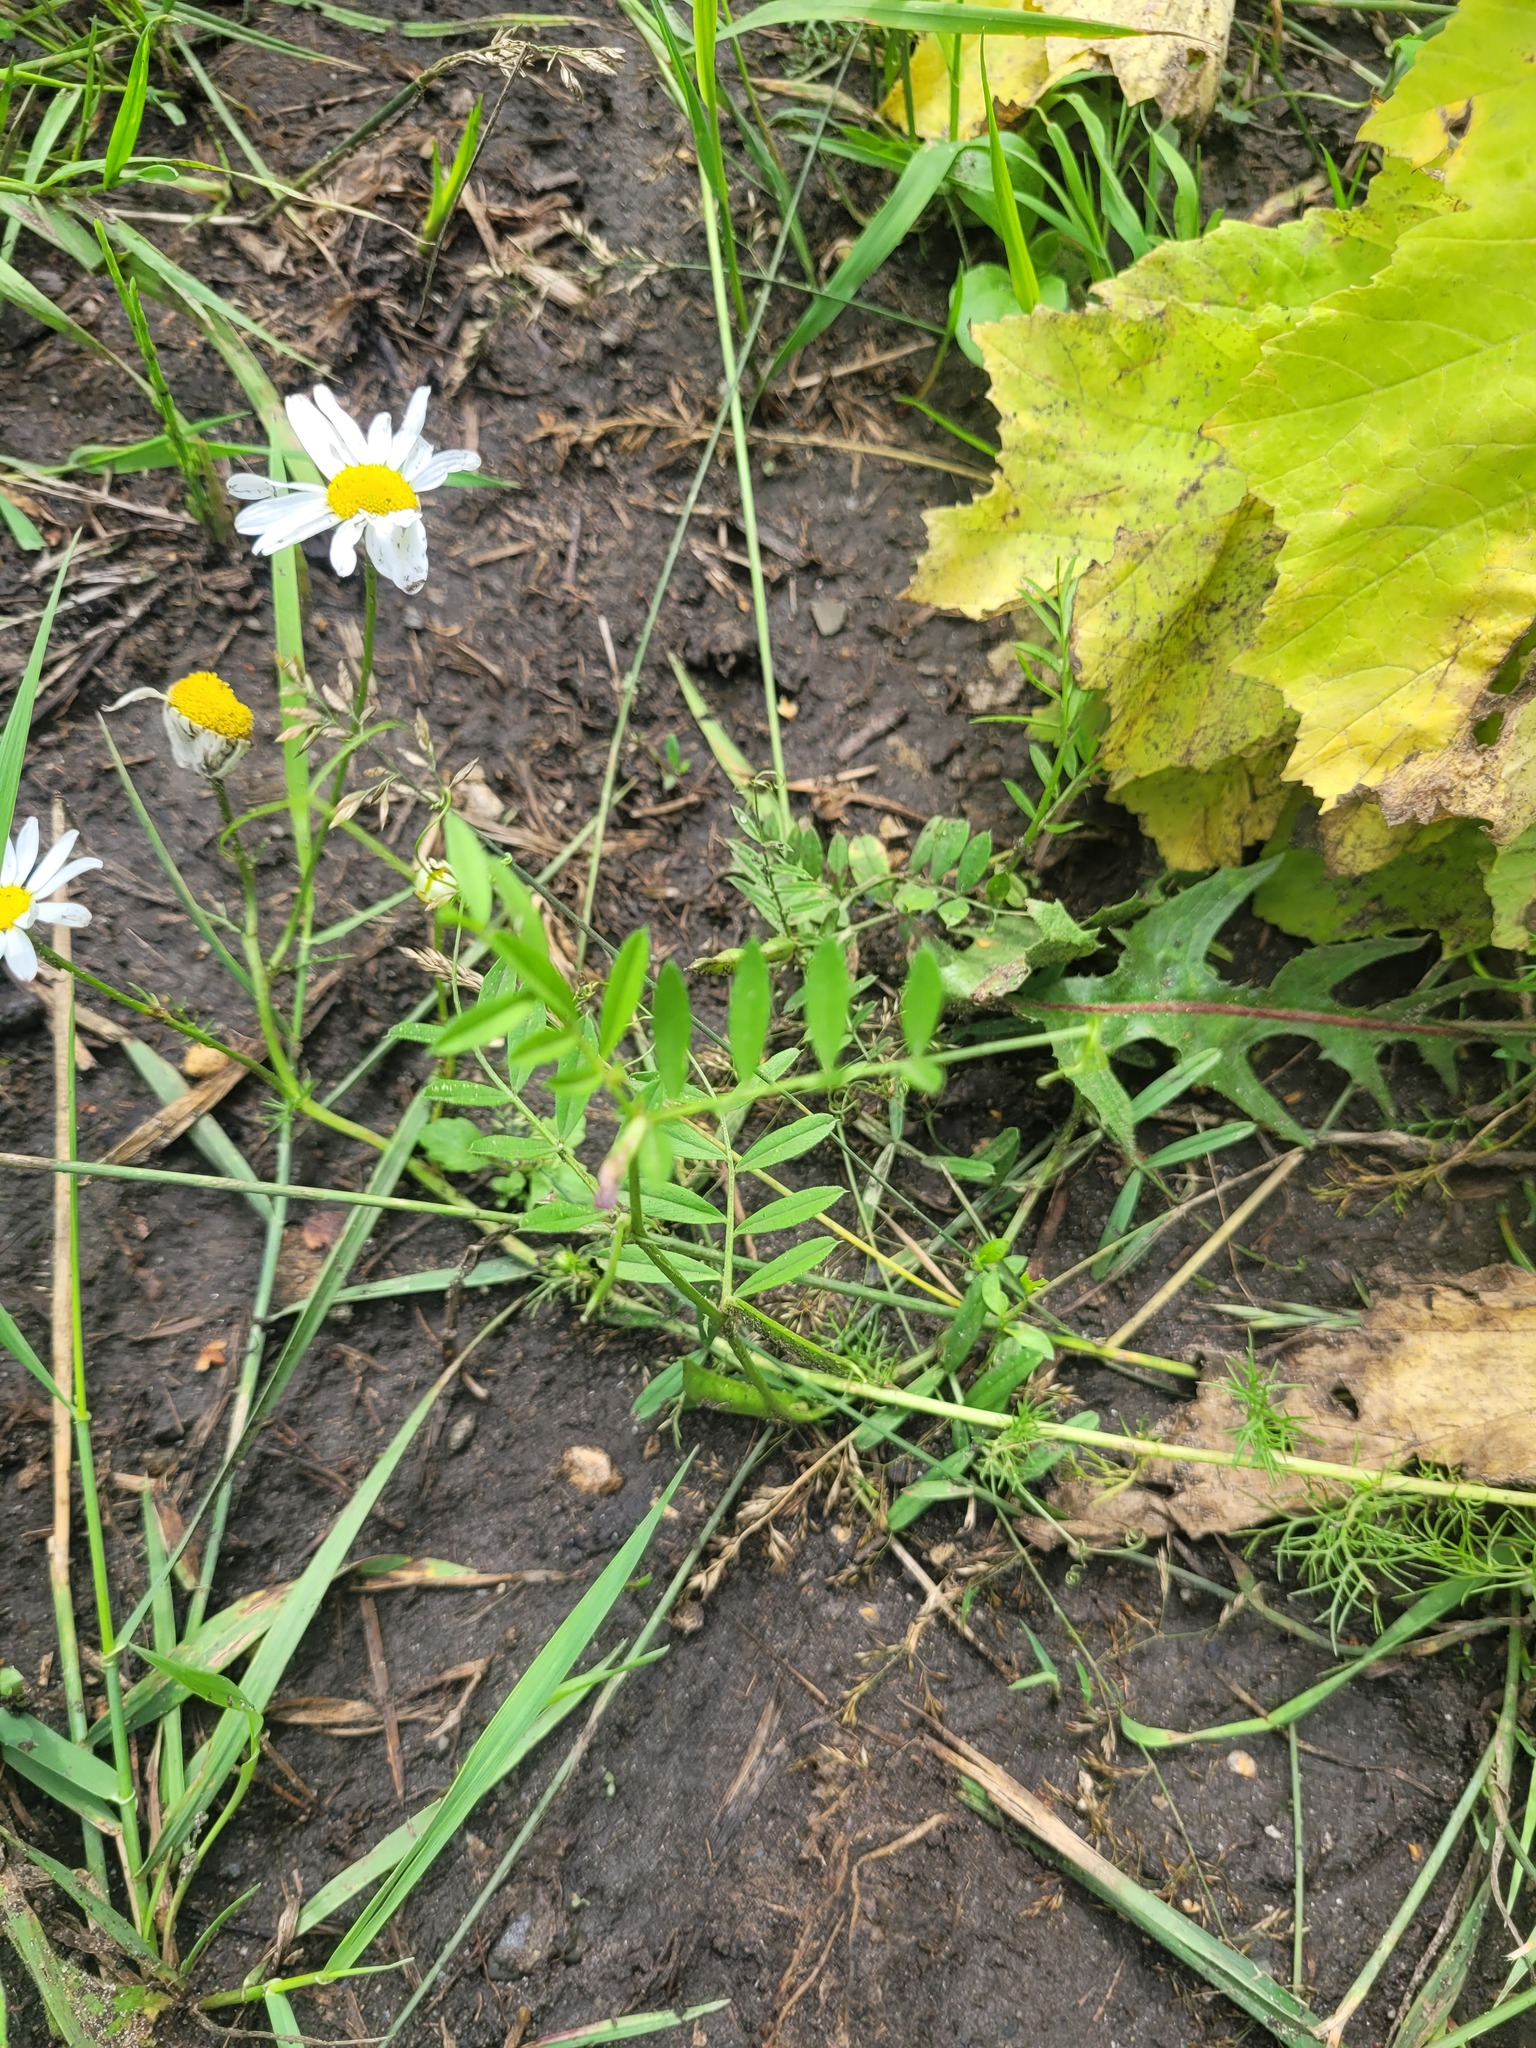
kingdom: Plantae
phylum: Tracheophyta
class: Magnoliopsida
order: Fabales
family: Fabaceae
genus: Vicia
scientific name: Vicia sativa
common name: Garden vetch
